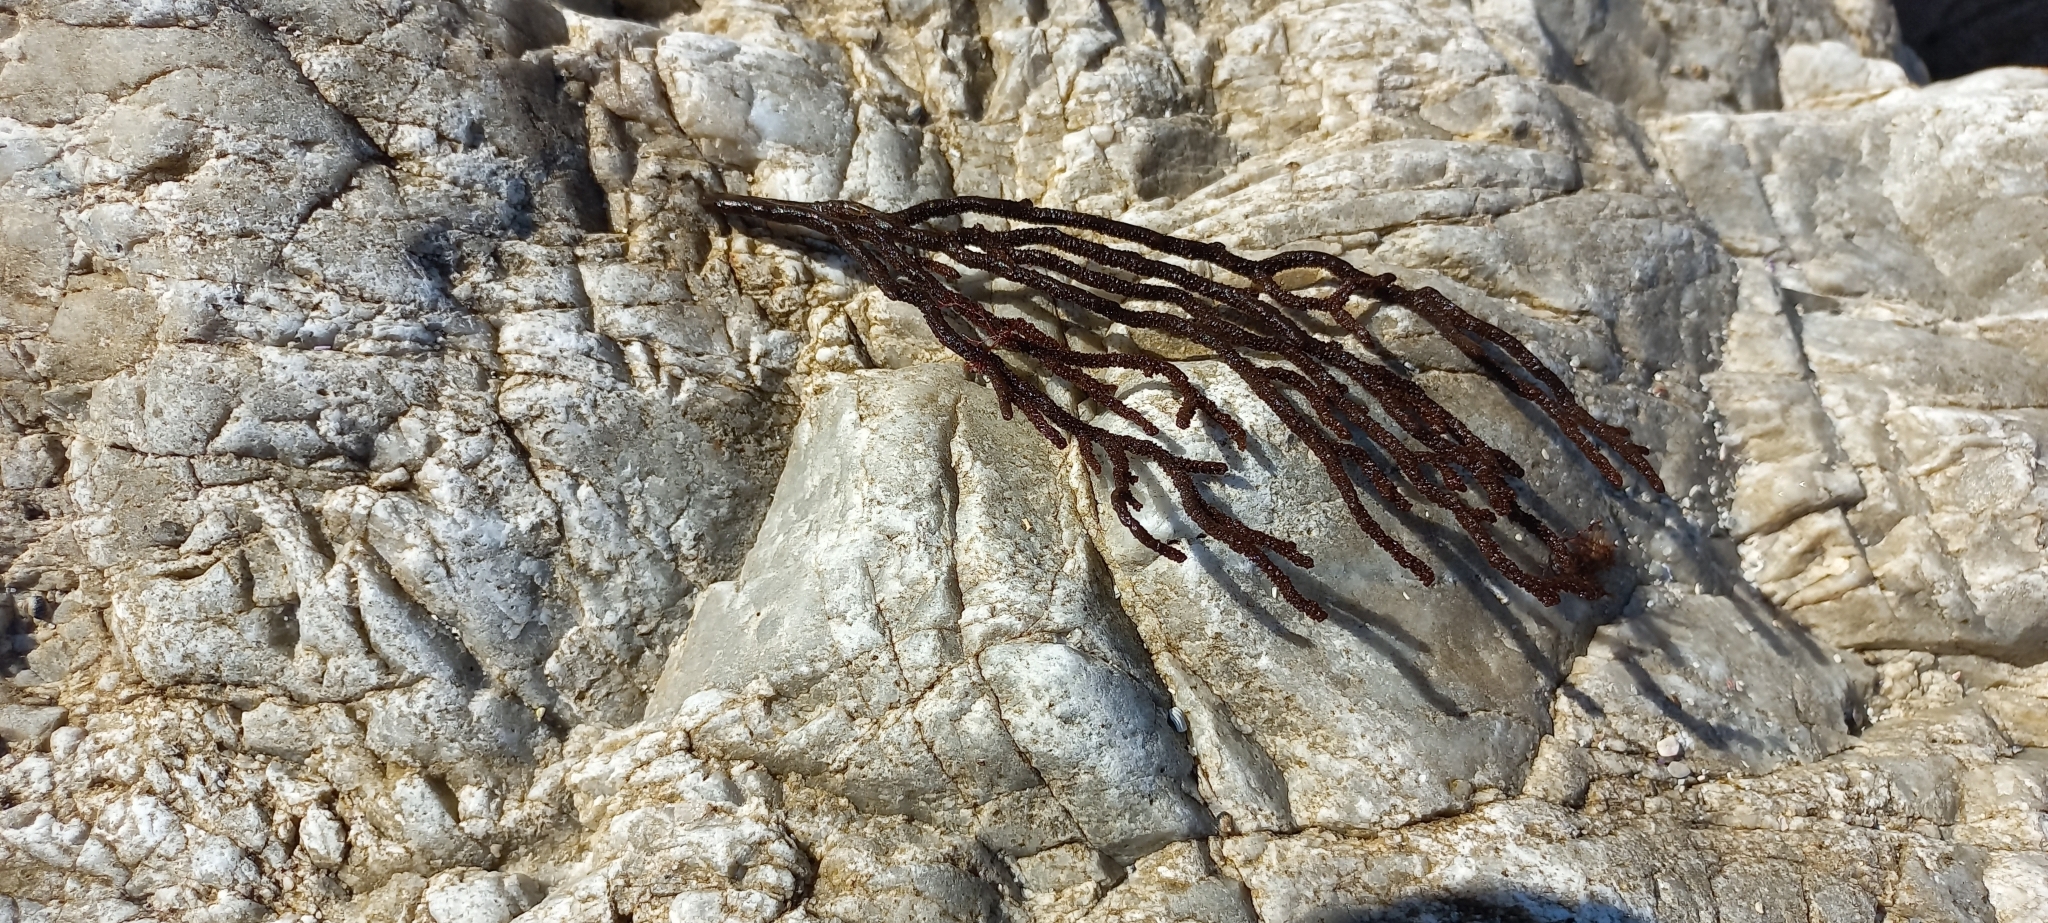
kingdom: Animalia
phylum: Cnidaria
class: Anthozoa
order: Malacalcyonacea
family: Gorgoniidae
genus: Leptogorgia
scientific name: Leptogorgia palma
